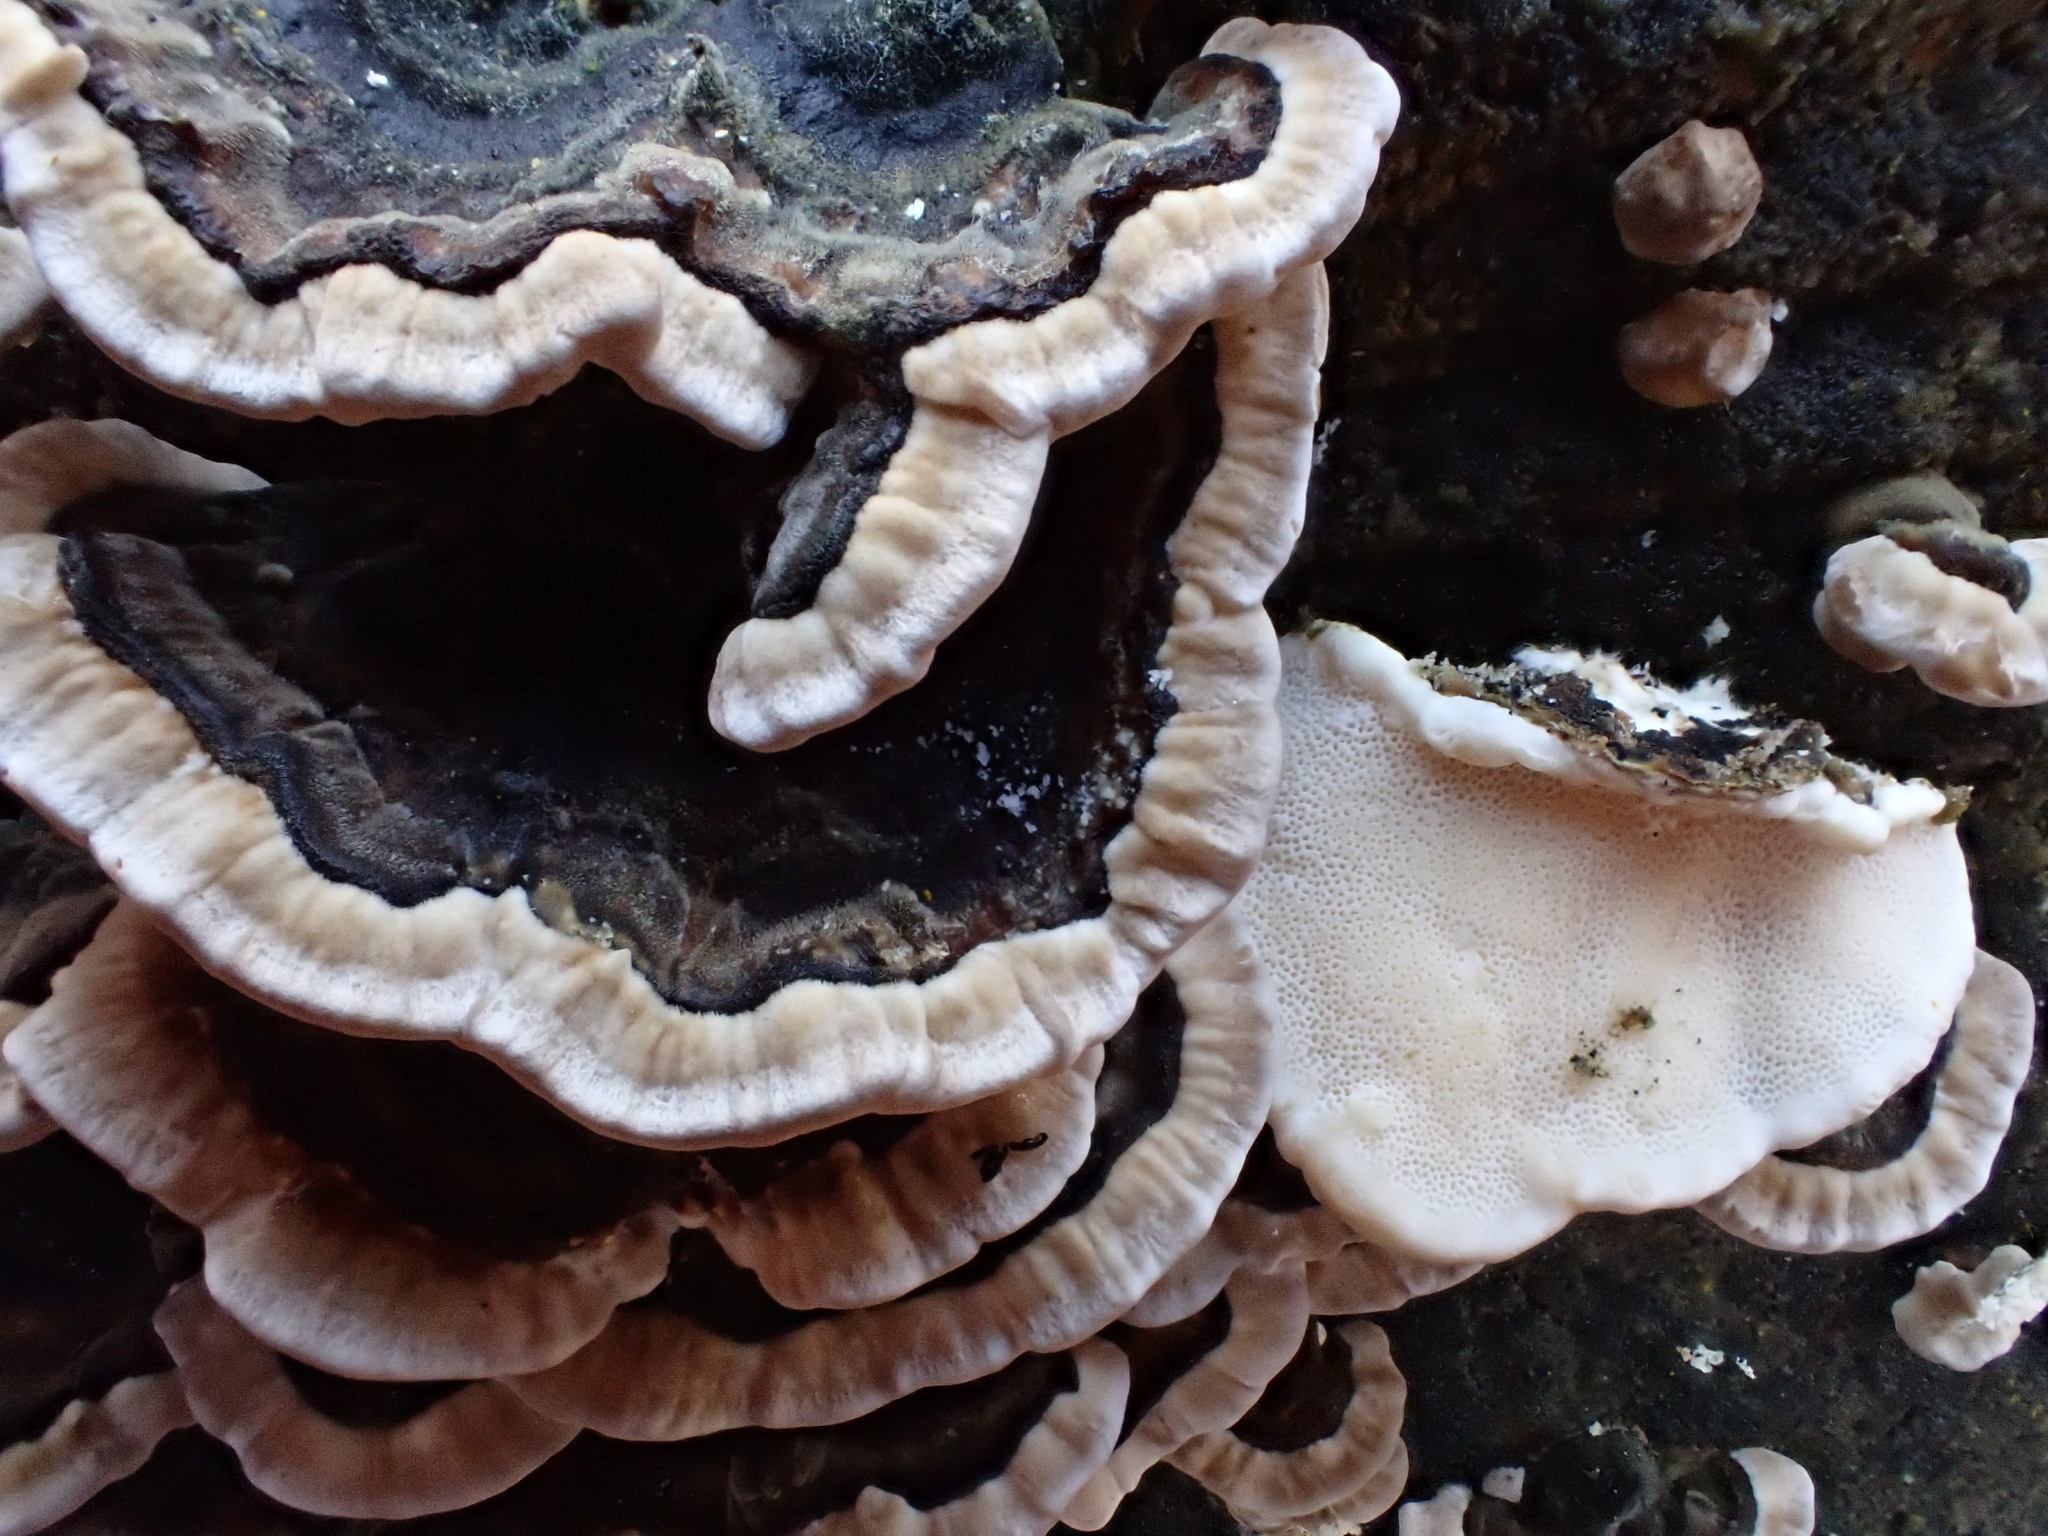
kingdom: Fungi
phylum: Basidiomycota
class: Agaricomycetes
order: Polyporales
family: Polyporaceae
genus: Trametes
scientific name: Trametes versicolor
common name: Turkeytail
